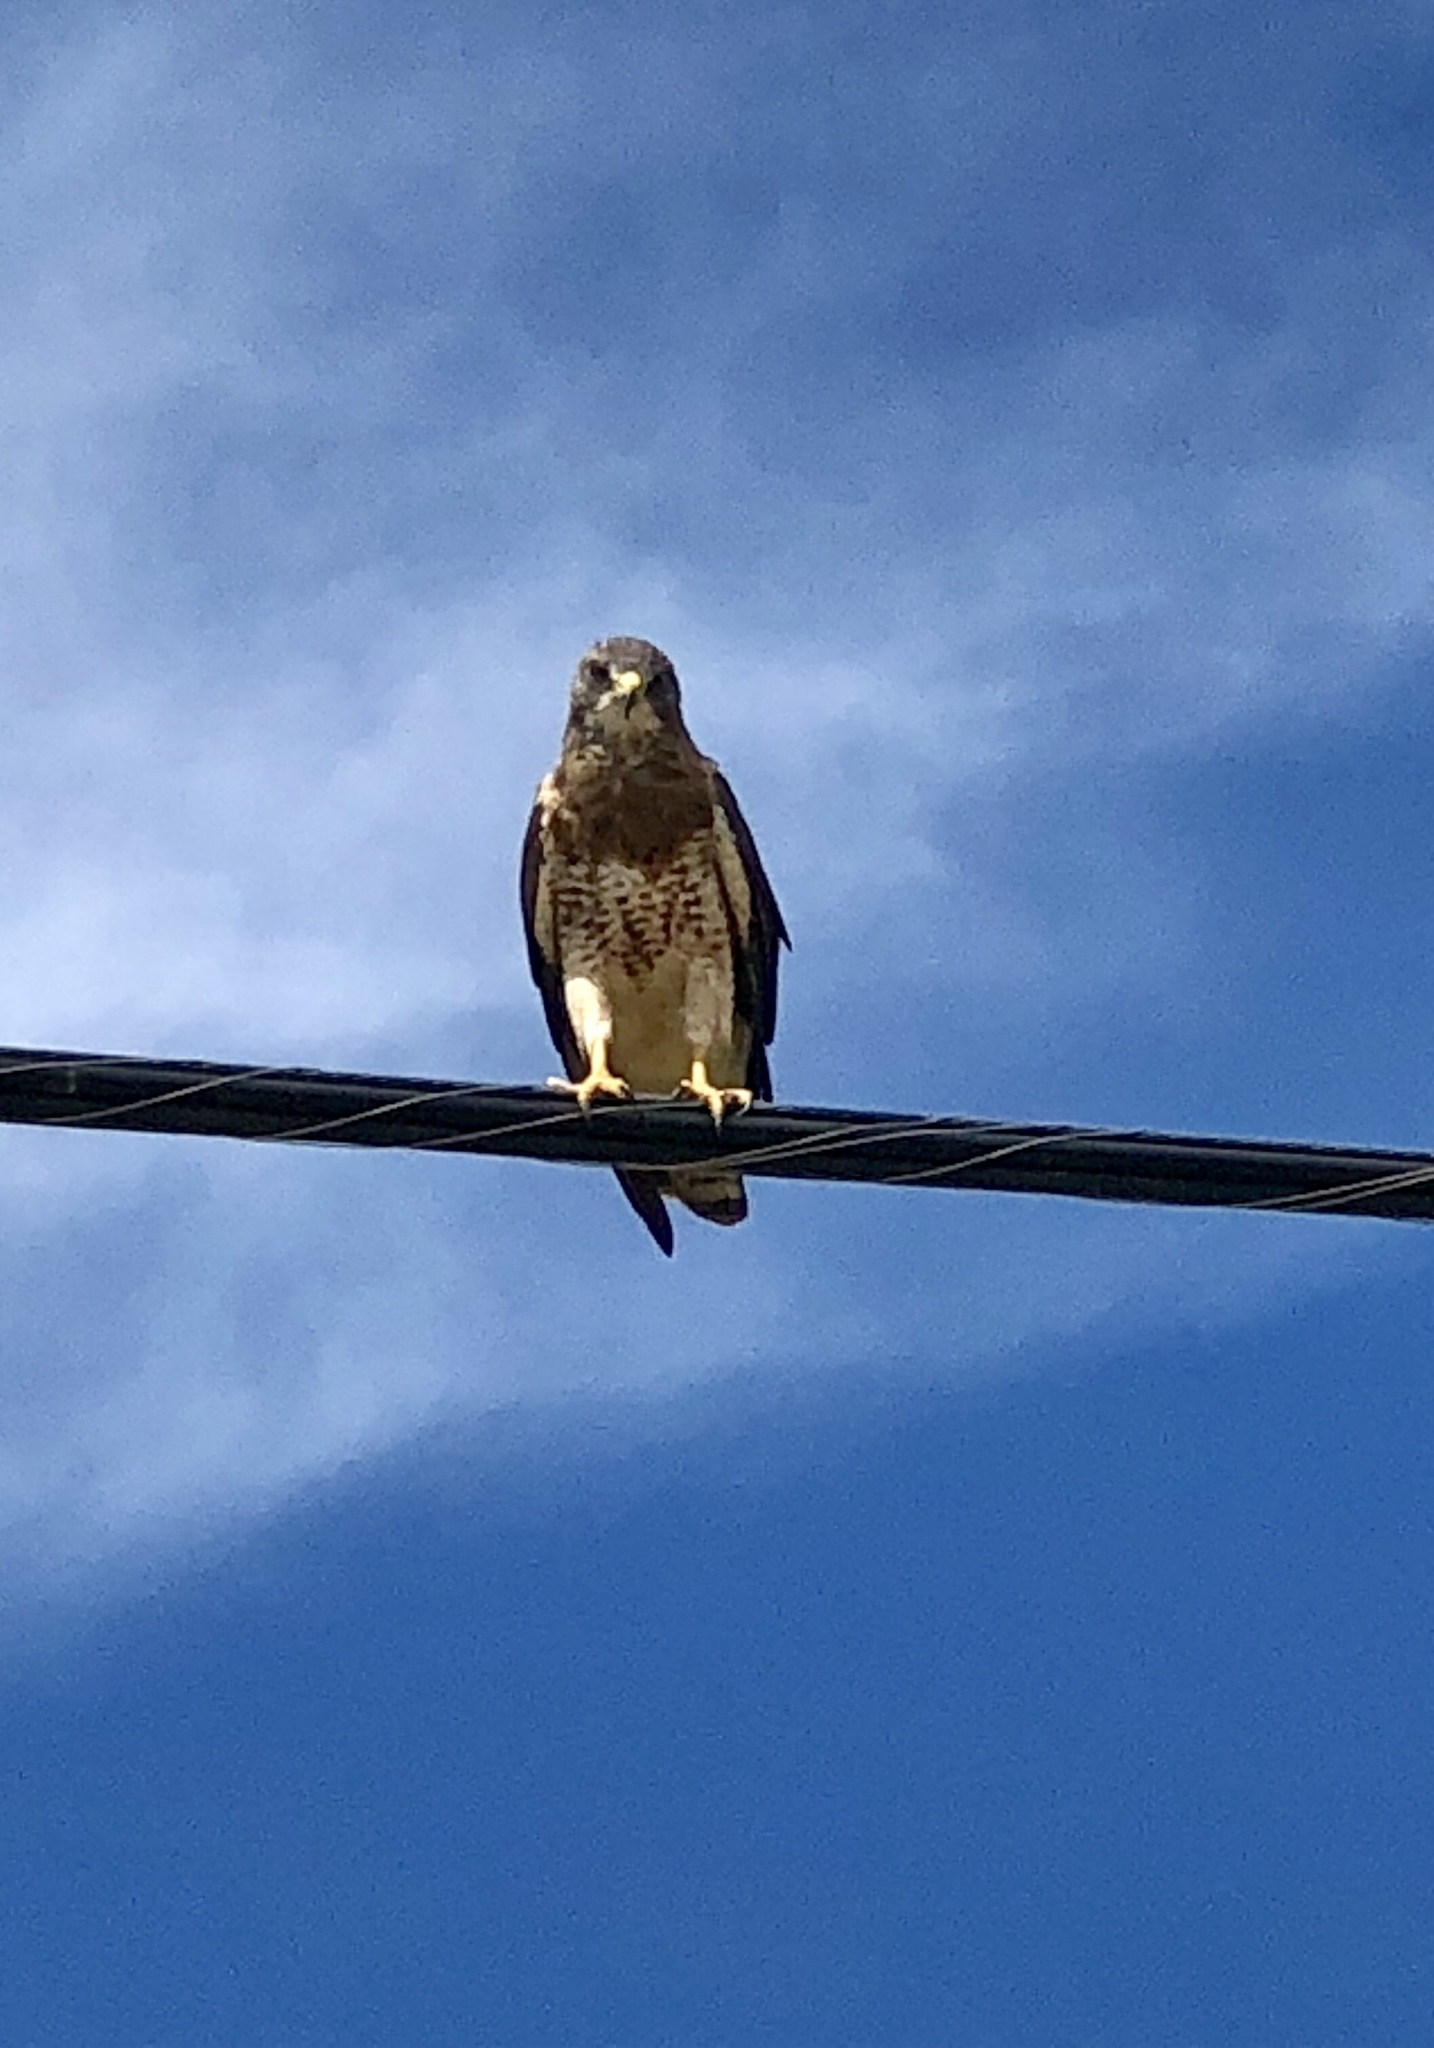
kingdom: Animalia
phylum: Chordata
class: Aves
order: Accipitriformes
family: Accipitridae
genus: Buteo
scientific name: Buteo swainsoni
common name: Swainson's hawk
